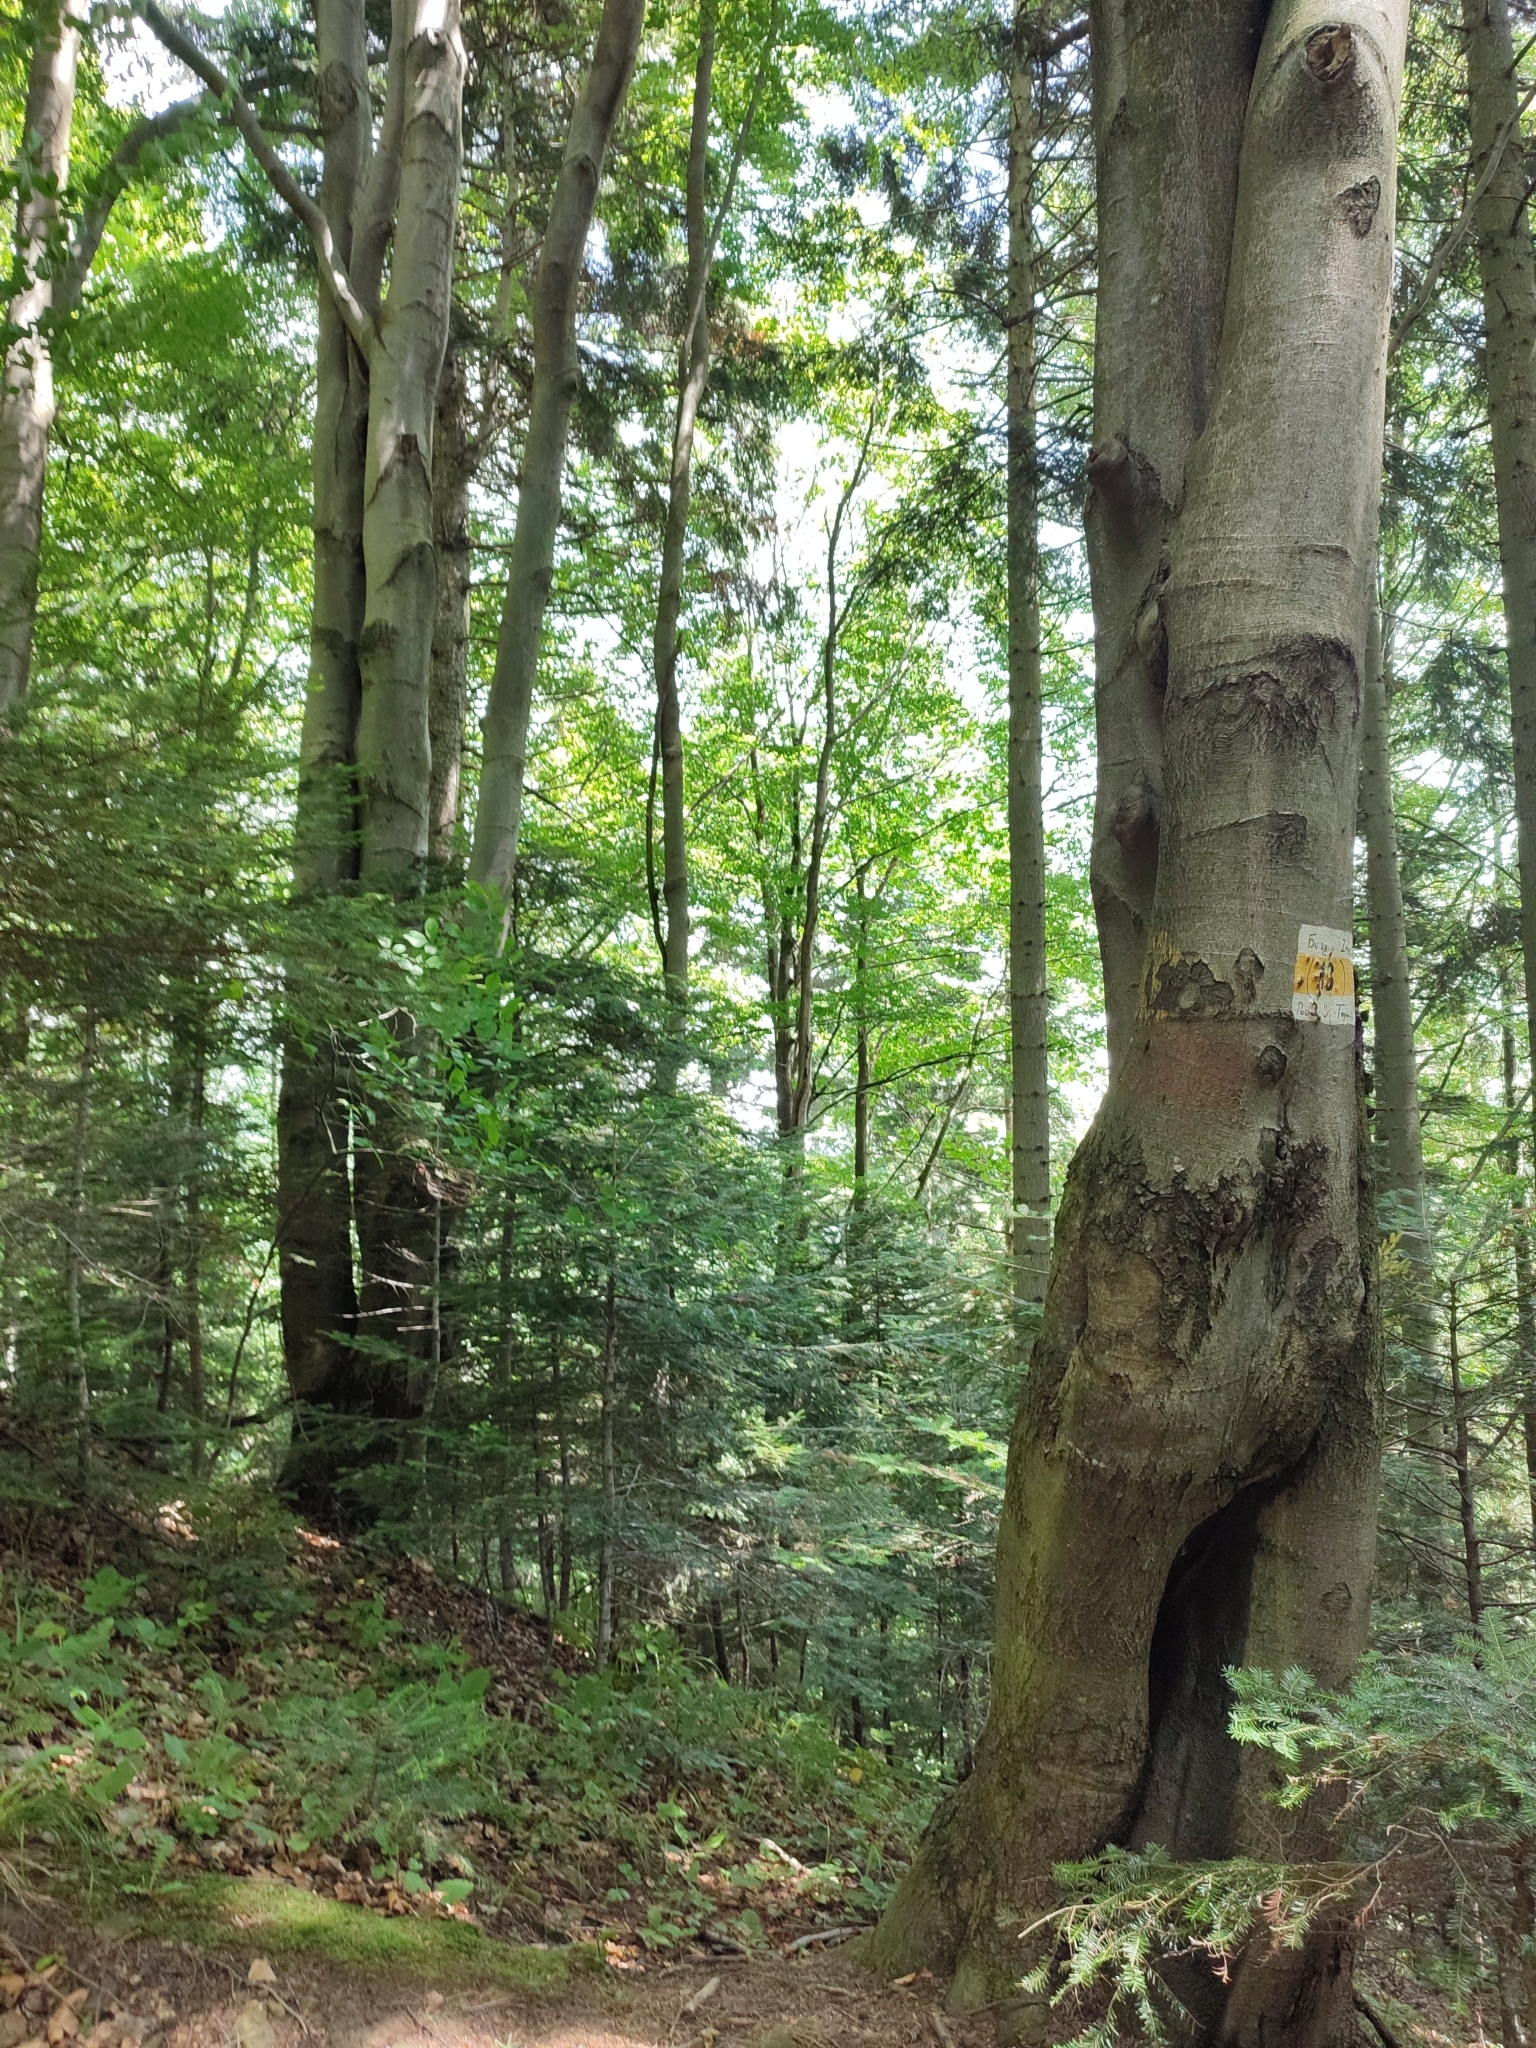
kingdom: Plantae
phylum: Tracheophyta
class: Magnoliopsida
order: Fagales
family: Fagaceae
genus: Fagus
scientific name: Fagus sylvatica
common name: Beech
